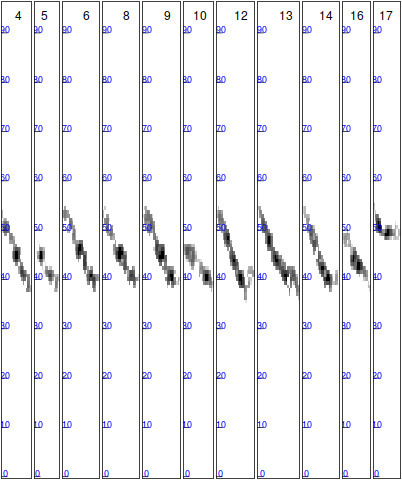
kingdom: Animalia
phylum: Chordata
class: Mammalia
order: Chiroptera
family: Vespertilionidae
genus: Myotis
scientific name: Myotis daubentonii
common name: Daubenton's myotis
